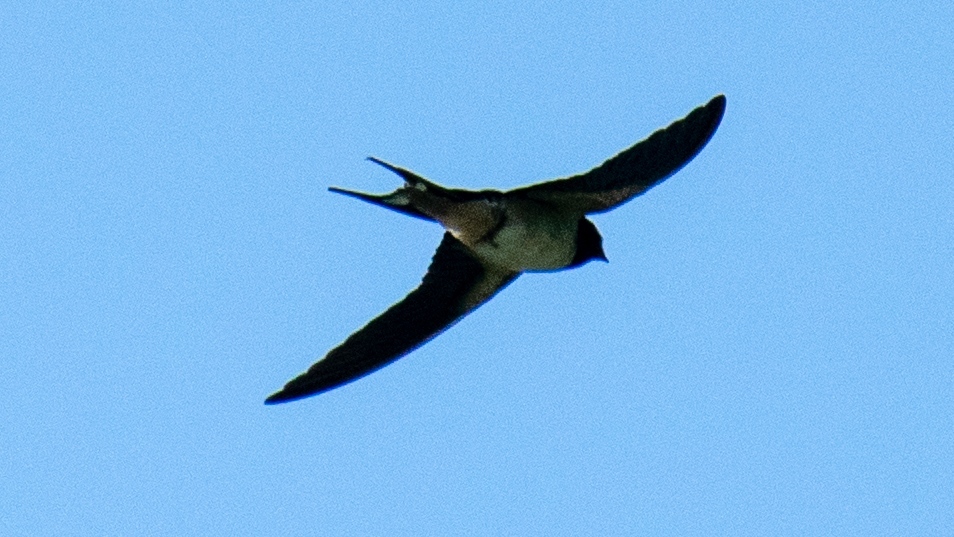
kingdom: Animalia
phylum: Chordata
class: Aves
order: Passeriformes
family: Hirundinidae
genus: Hirundo
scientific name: Hirundo rustica
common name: Barn swallow
